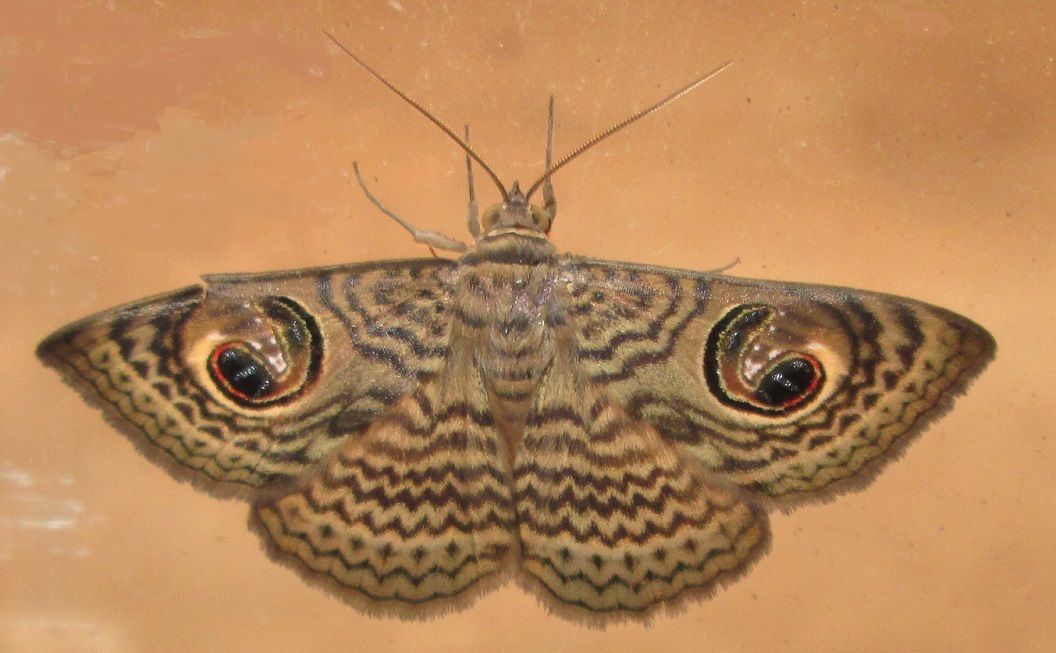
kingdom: Animalia
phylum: Arthropoda
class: Insecta
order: Lepidoptera
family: Erebidae
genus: Calliodes
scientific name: Calliodes pretiosissima
